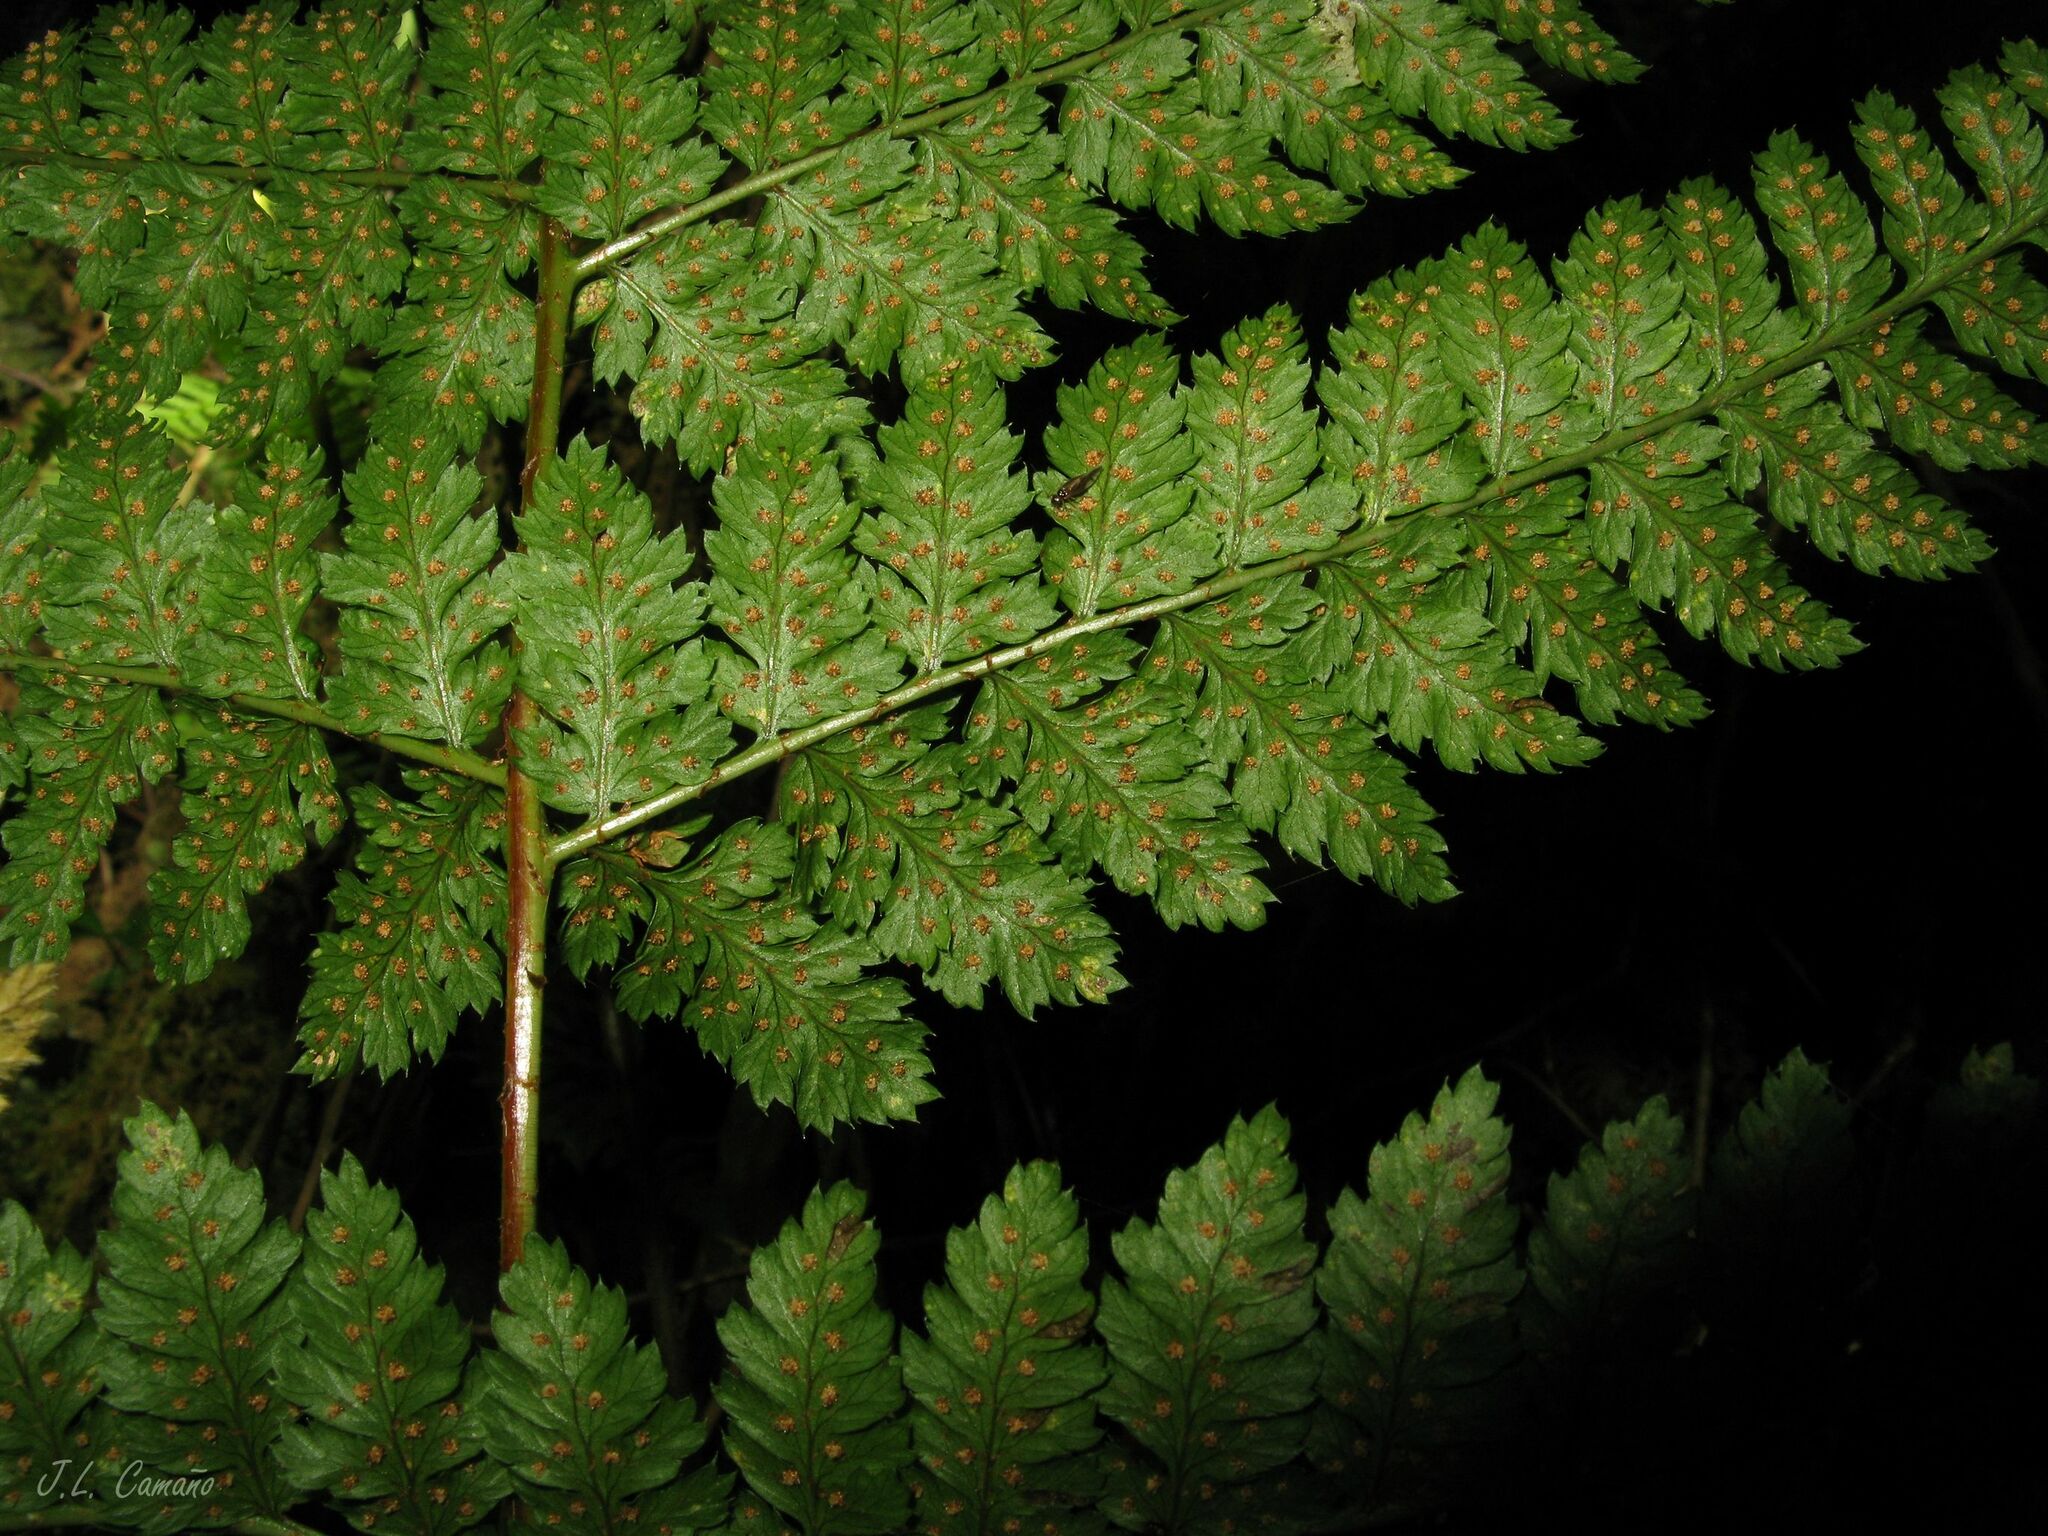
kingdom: Plantae
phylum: Tracheophyta
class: Polypodiopsida
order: Polypodiales
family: Dryopteridaceae
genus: Dryopteris
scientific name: Dryopteris dilatata
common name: Broad buckler-fern
